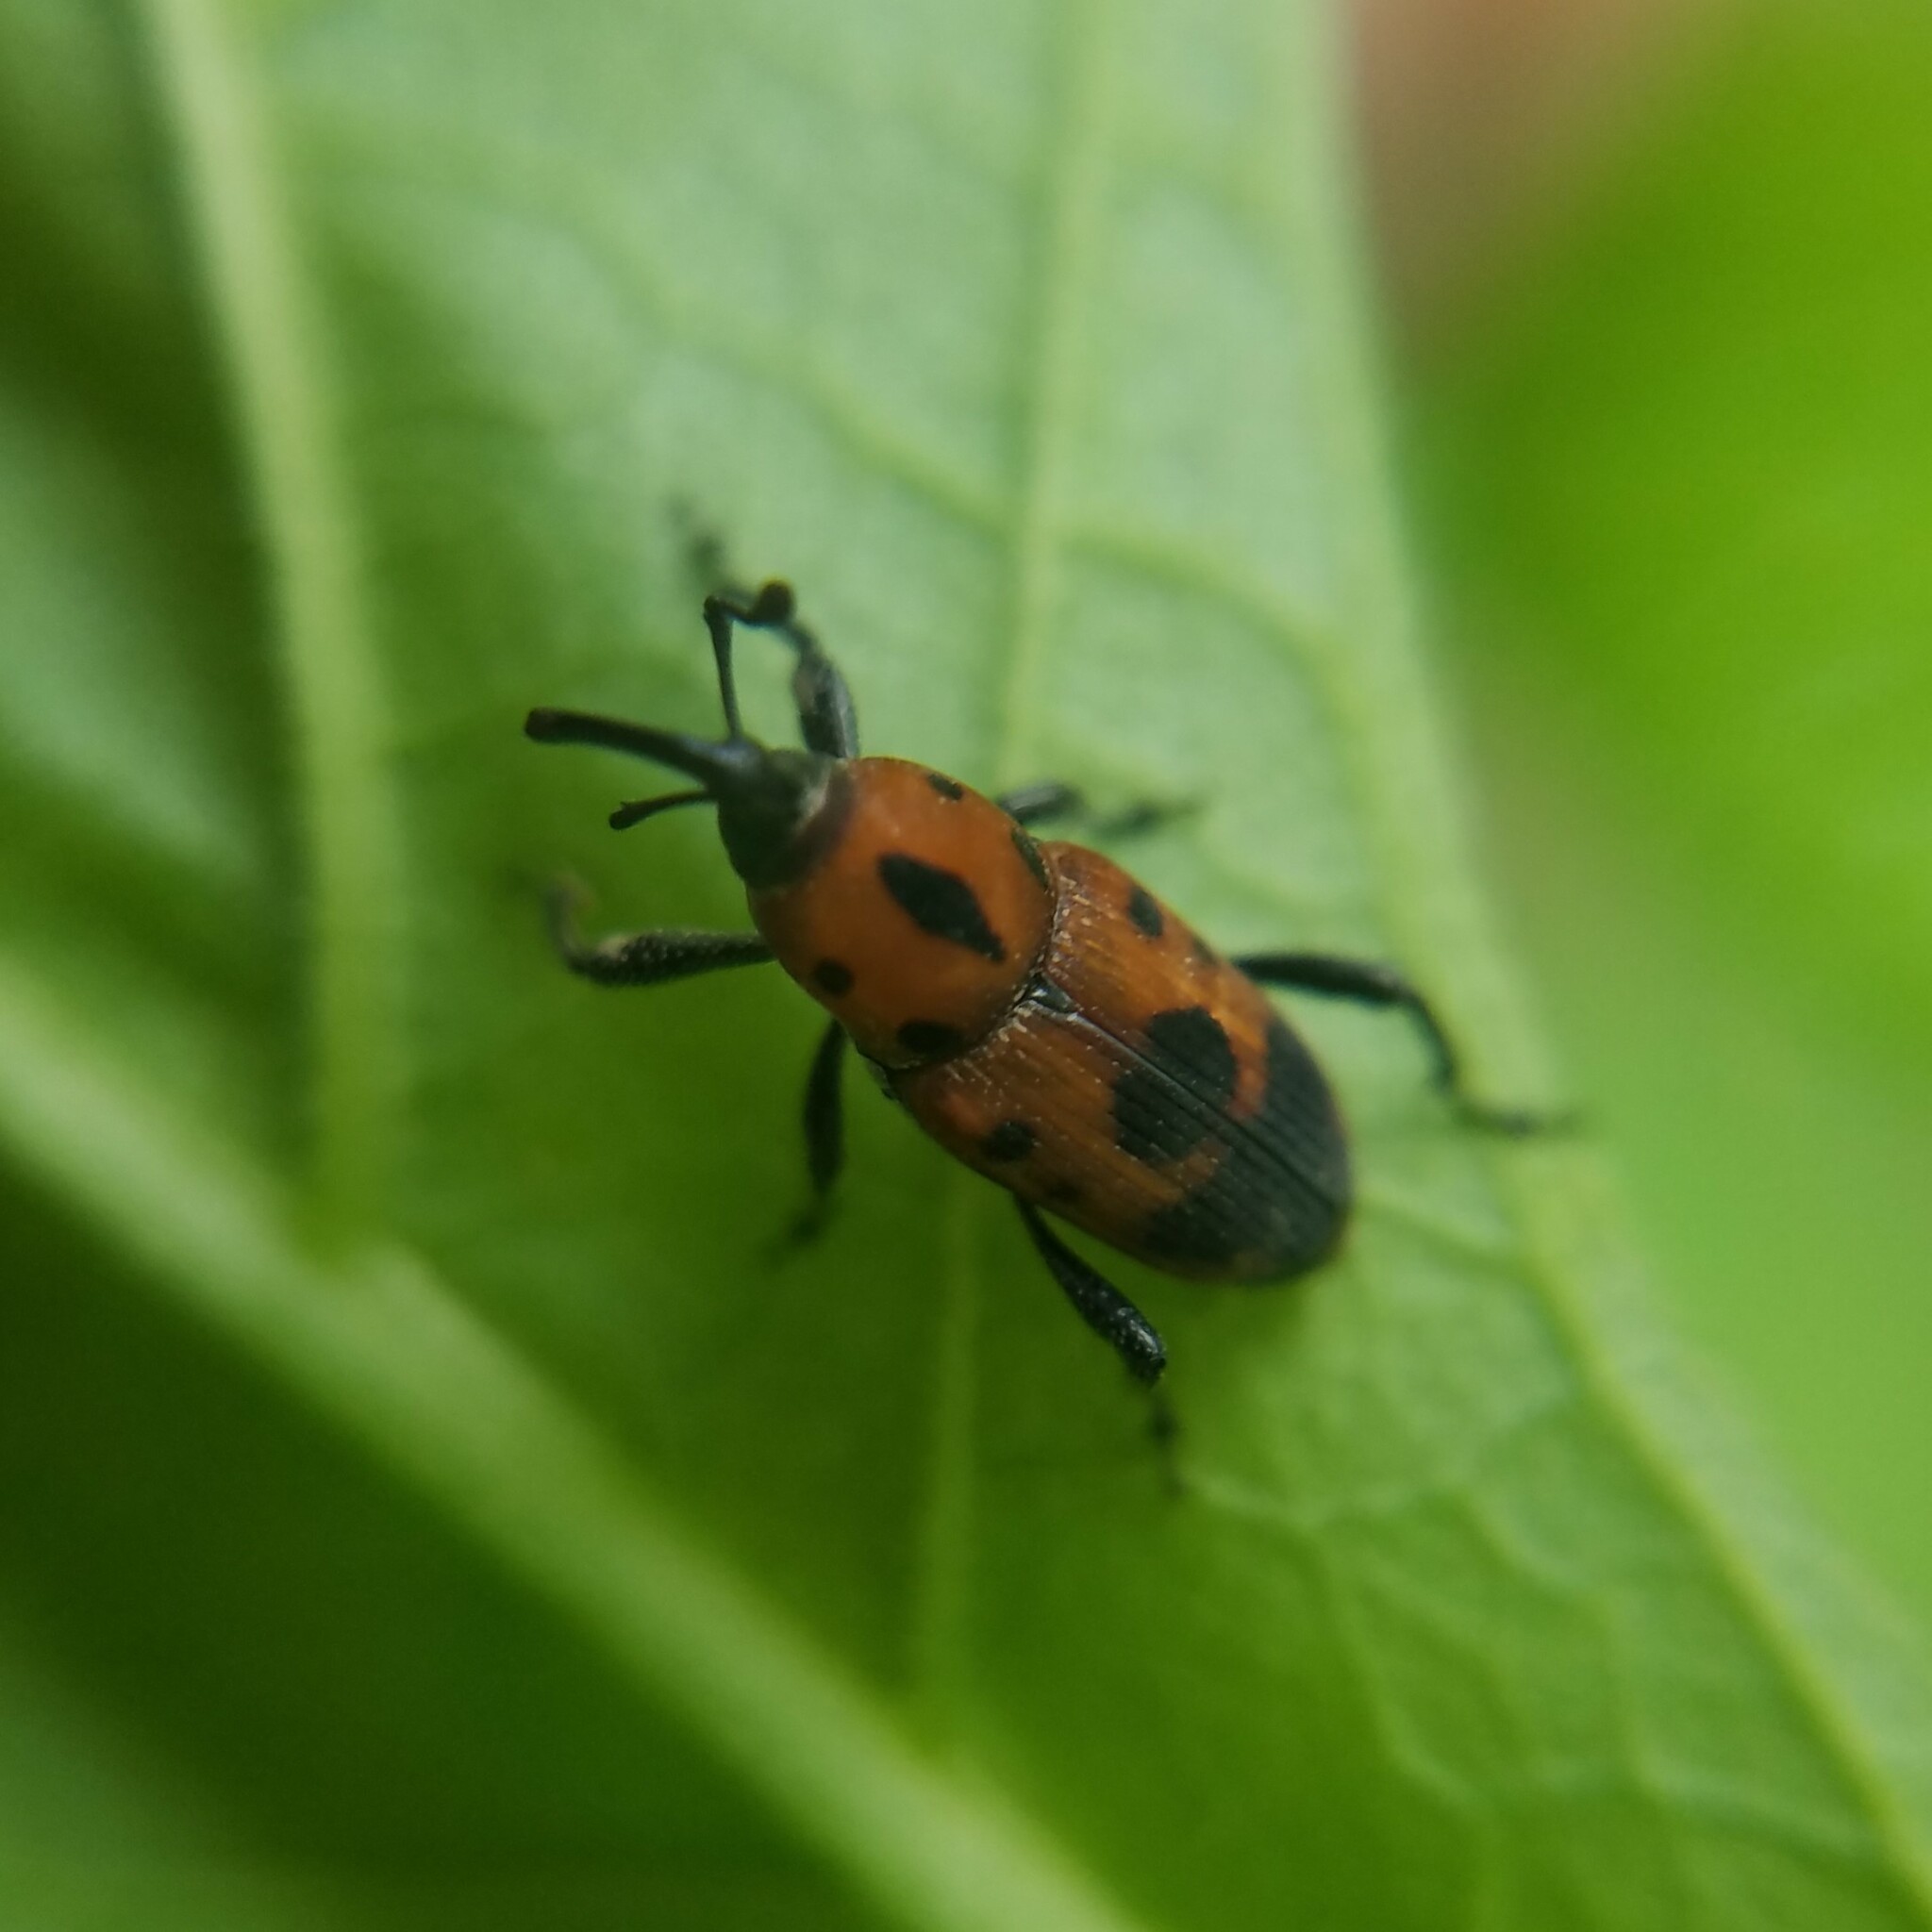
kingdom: Animalia
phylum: Arthropoda
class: Insecta
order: Coleoptera
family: Dryophthoridae
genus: Rhodobaenus
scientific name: Rhodobaenus quinquepunctatus
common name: Cocklebur weevil
